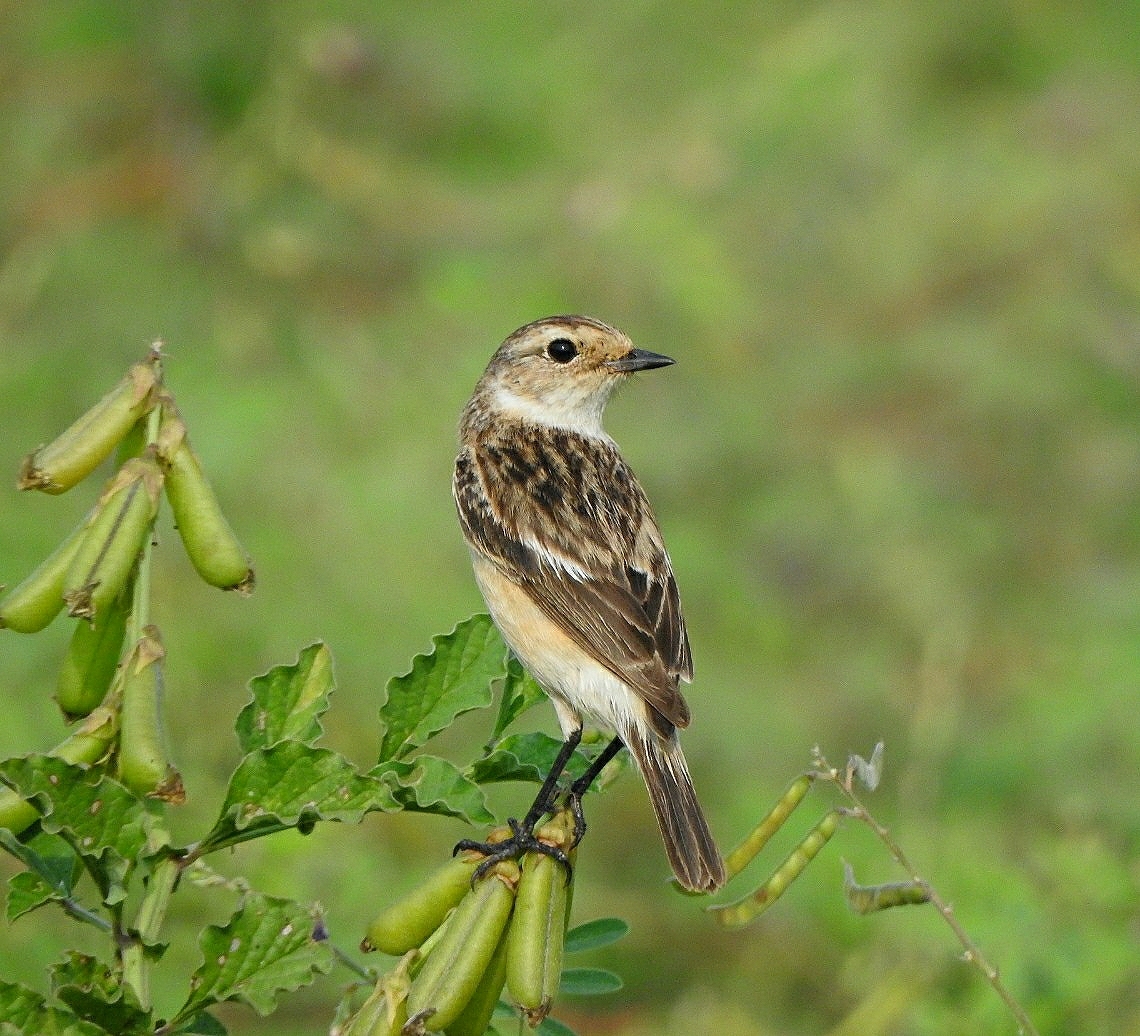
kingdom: Animalia
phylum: Chordata
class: Aves
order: Passeriformes
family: Muscicapidae
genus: Saxicola
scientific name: Saxicola maurus
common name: Siberian stonechat
